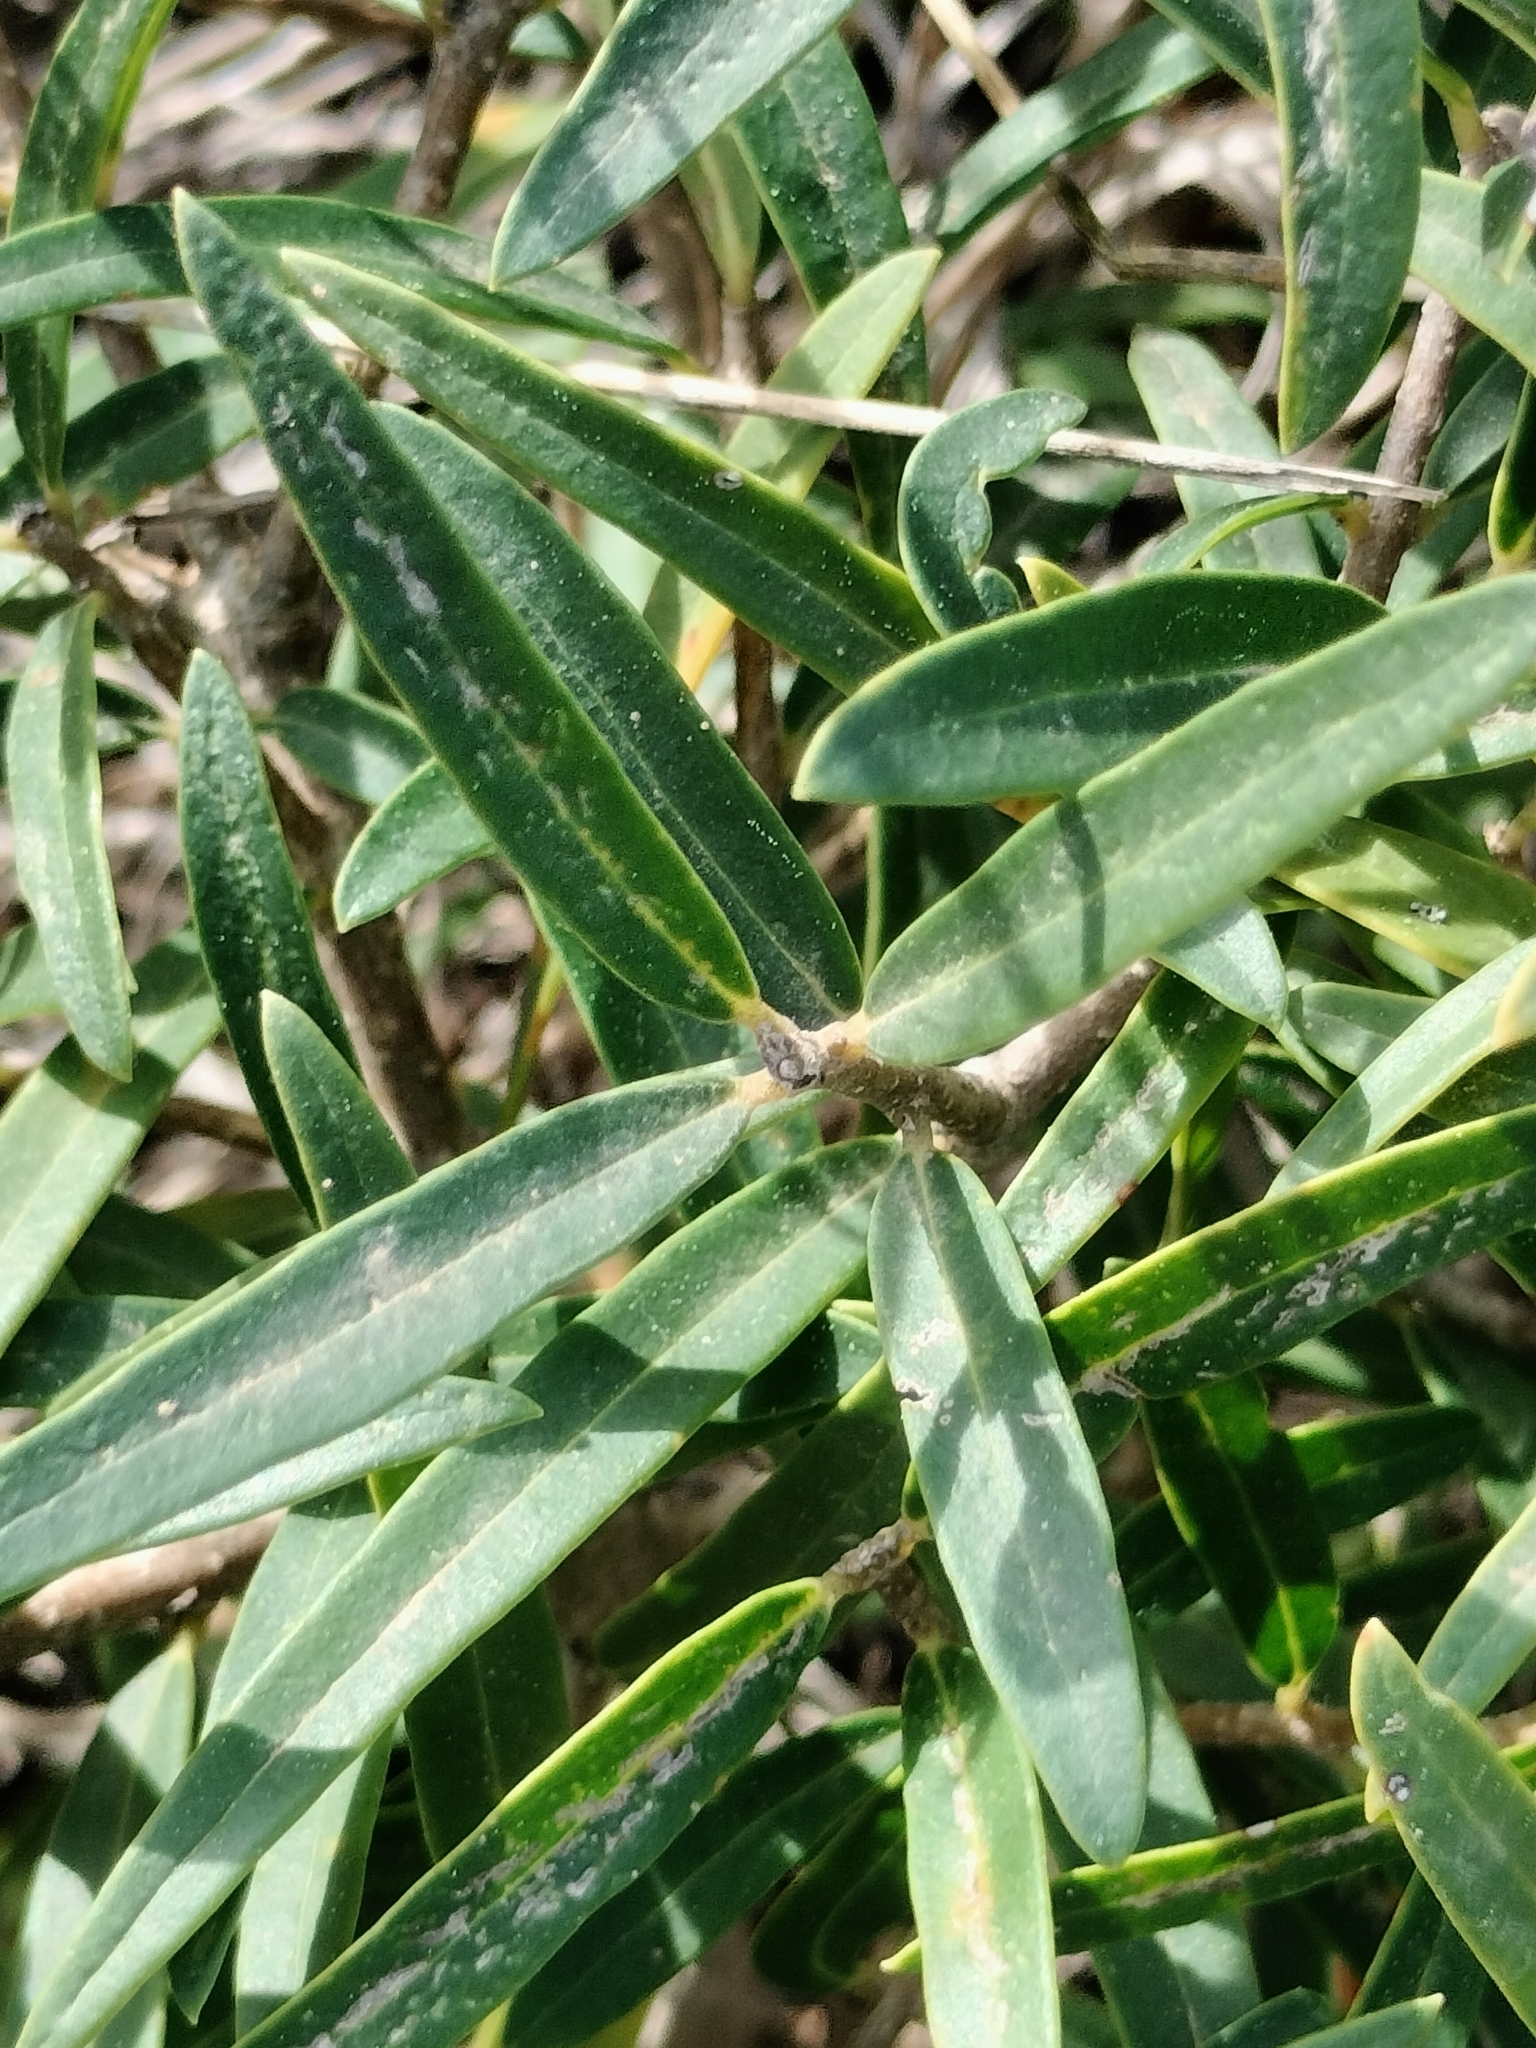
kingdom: Plantae
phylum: Tracheophyta
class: Magnoliopsida
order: Lamiales
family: Oleaceae
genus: Phillyrea
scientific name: Phillyrea angustifolia
